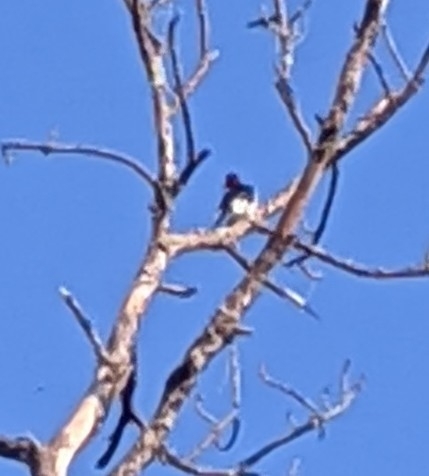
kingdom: Animalia
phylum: Chordata
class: Aves
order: Piciformes
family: Picidae
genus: Melanerpes
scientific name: Melanerpes erythrocephalus
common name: Red-headed woodpecker
